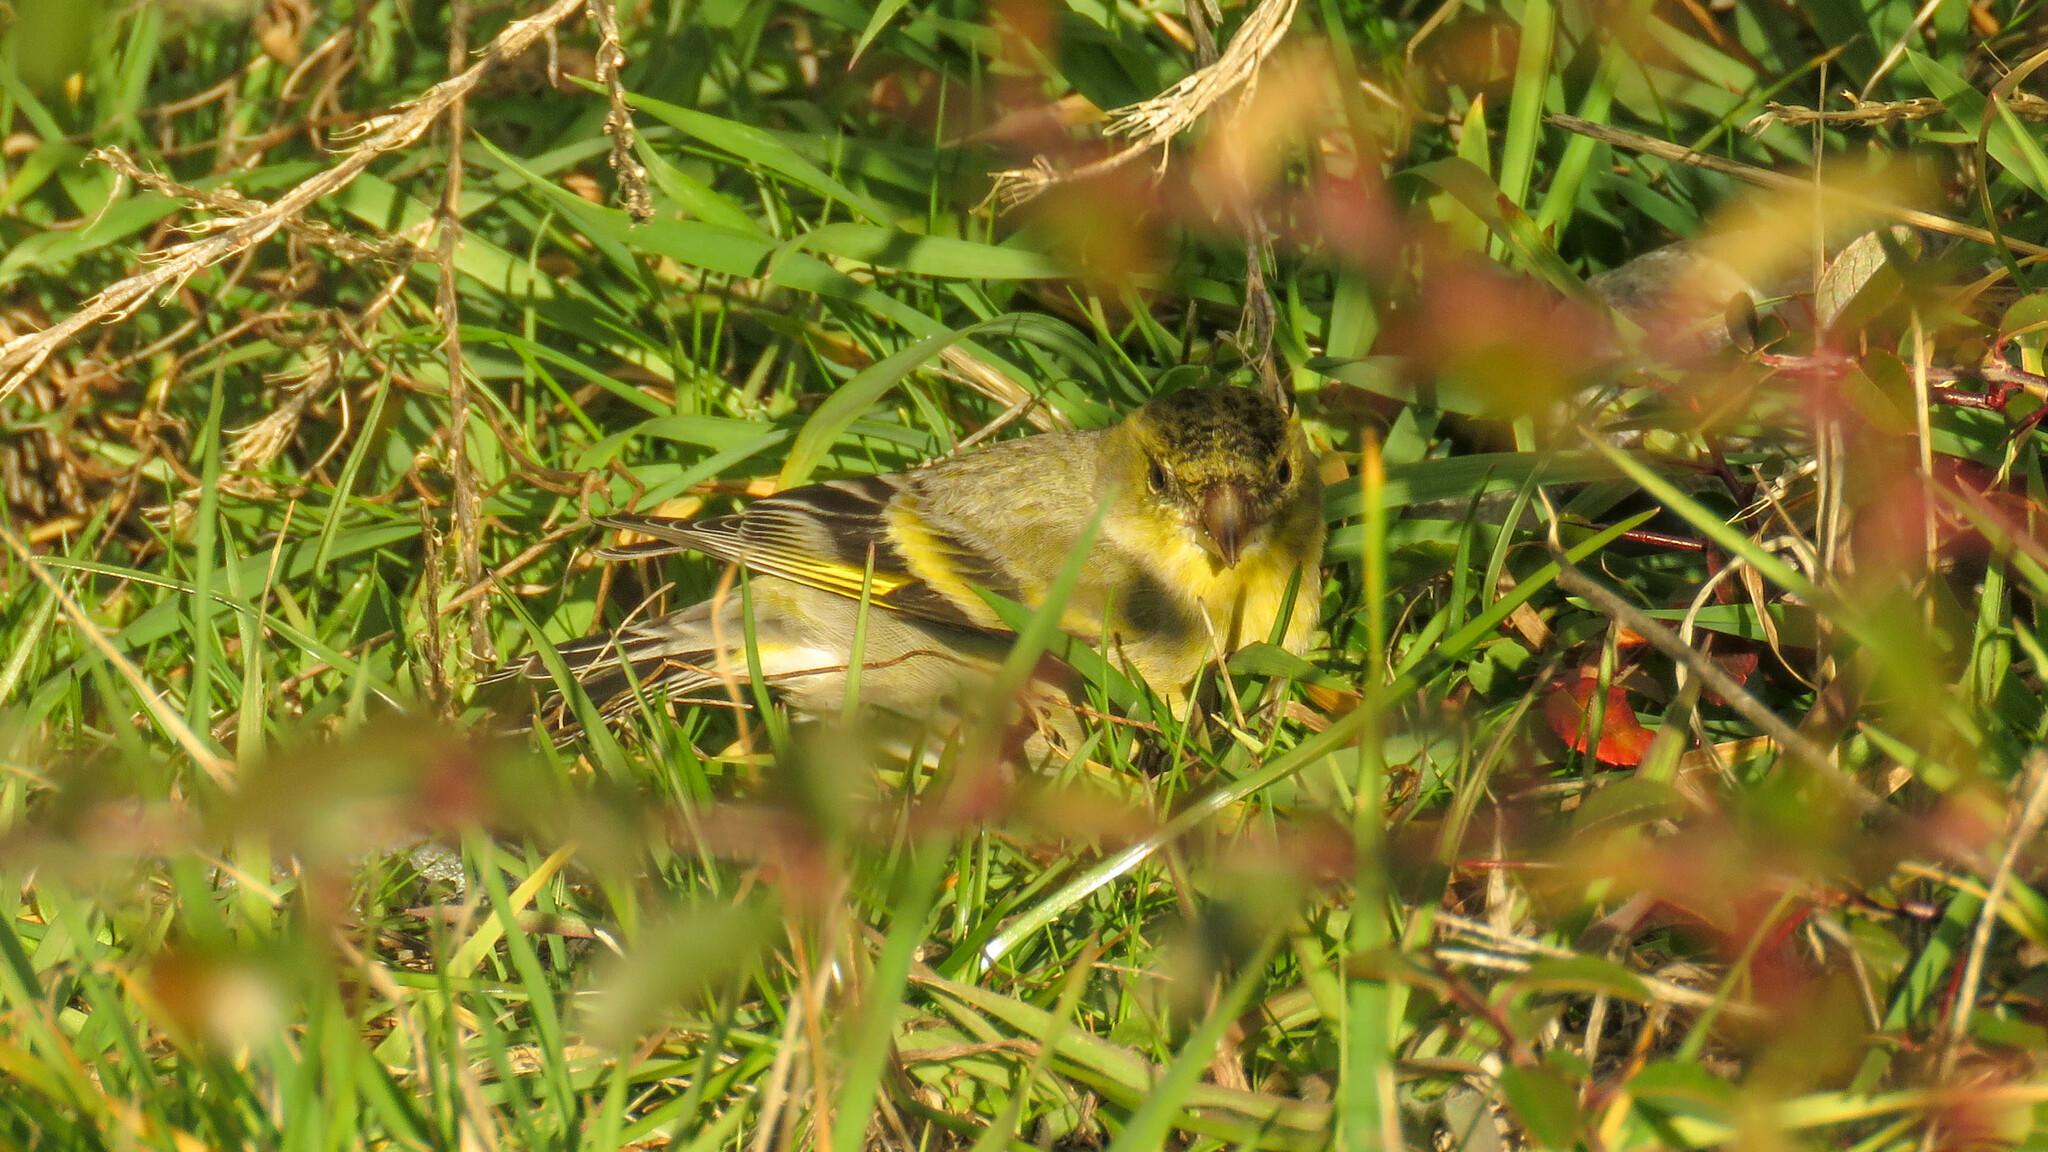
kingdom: Animalia
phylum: Chordata
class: Aves
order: Passeriformes
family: Fringillidae
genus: Spinus
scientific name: Spinus barbatus
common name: Black-chinned siskin
